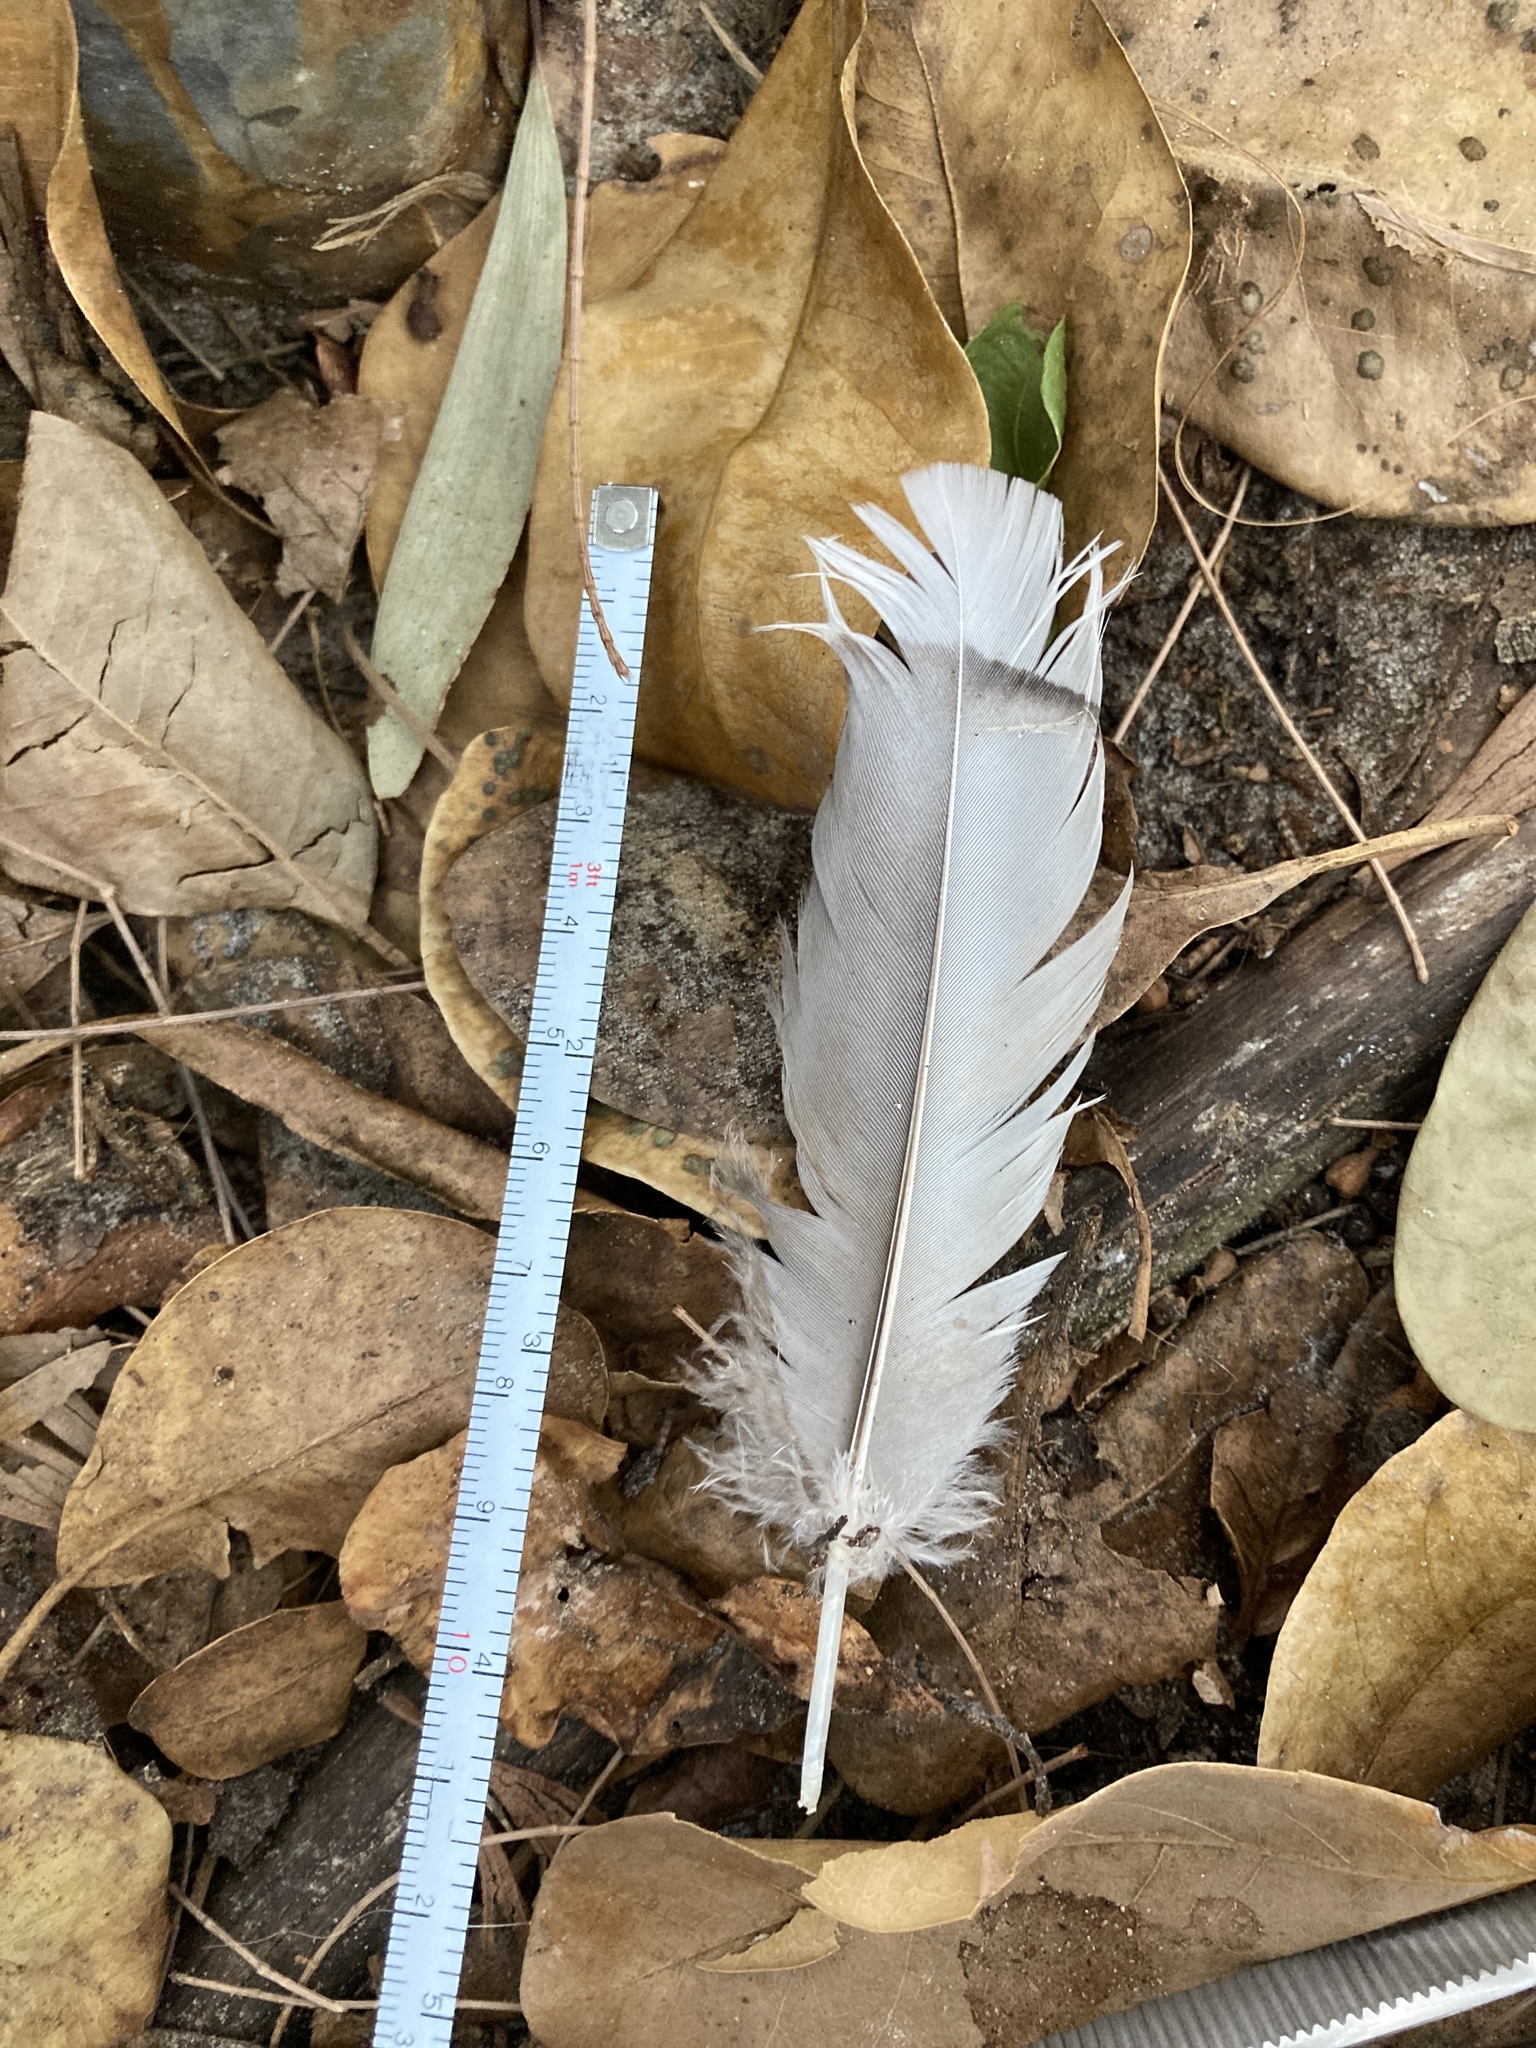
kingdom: Animalia
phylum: Chordata
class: Aves
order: Anseriformes
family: Anatidae
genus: Alopochen
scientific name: Alopochen aegyptiaca
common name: Egyptian goose
